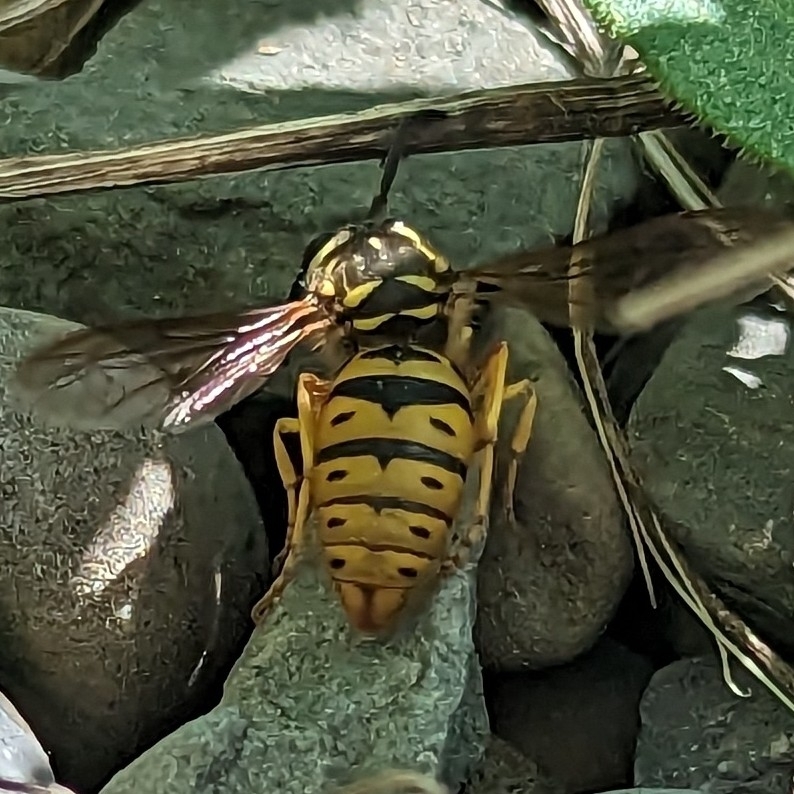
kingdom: Animalia
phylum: Arthropoda
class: Insecta
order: Hymenoptera
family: Vespidae
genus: Vespula
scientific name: Vespula maculifrons
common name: Eastern yellowjacket
